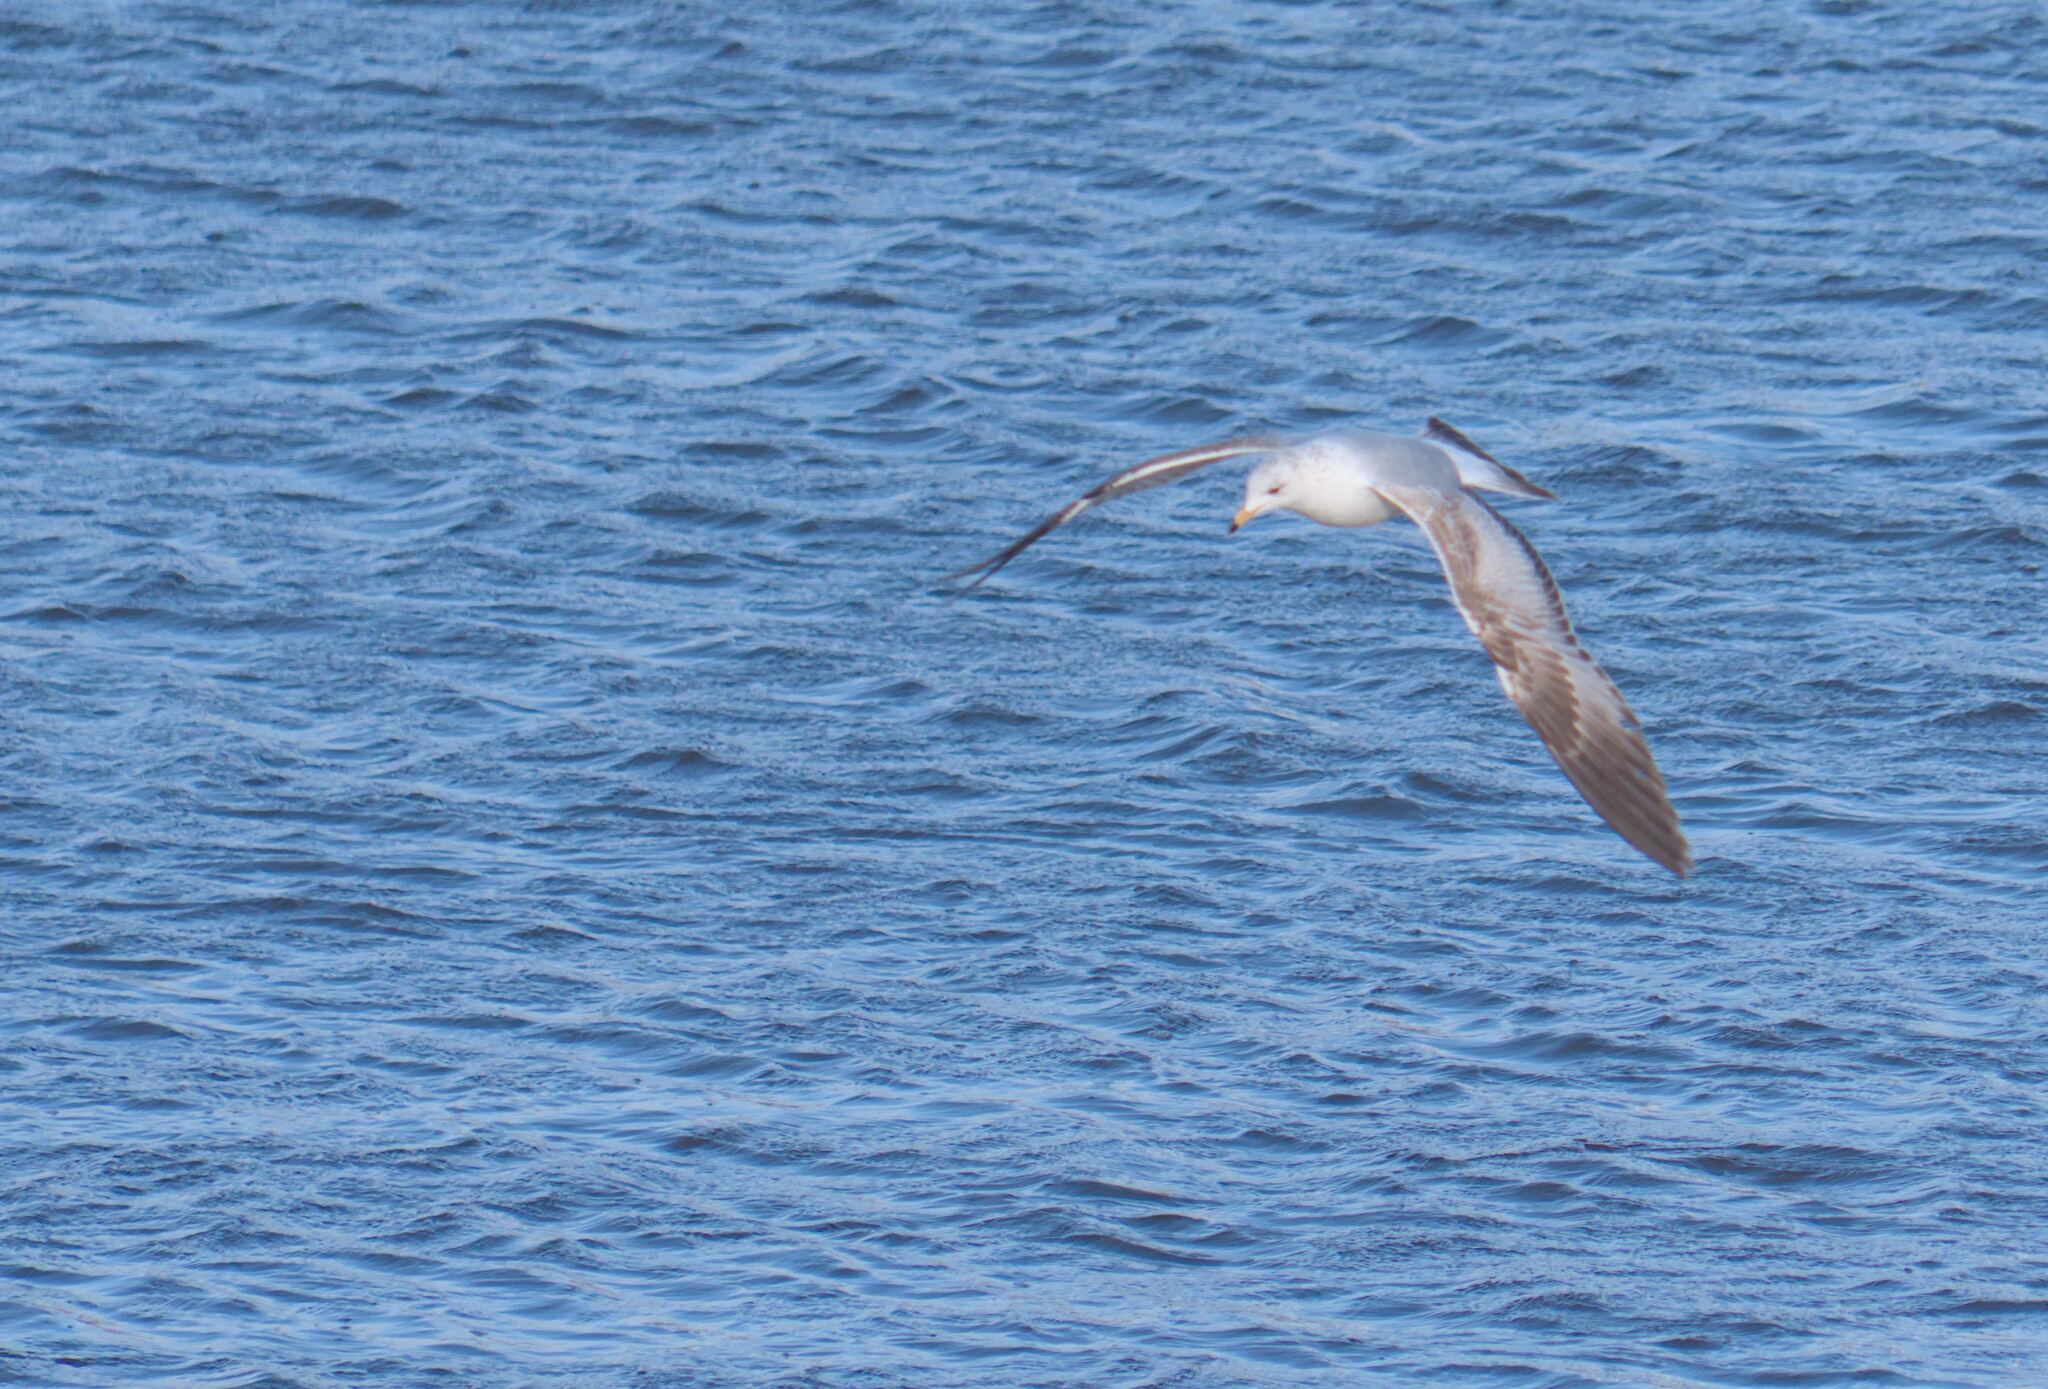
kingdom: Animalia
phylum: Chordata
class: Aves
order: Charadriiformes
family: Laridae
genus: Larus
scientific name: Larus delawarensis
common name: Ring-billed gull
